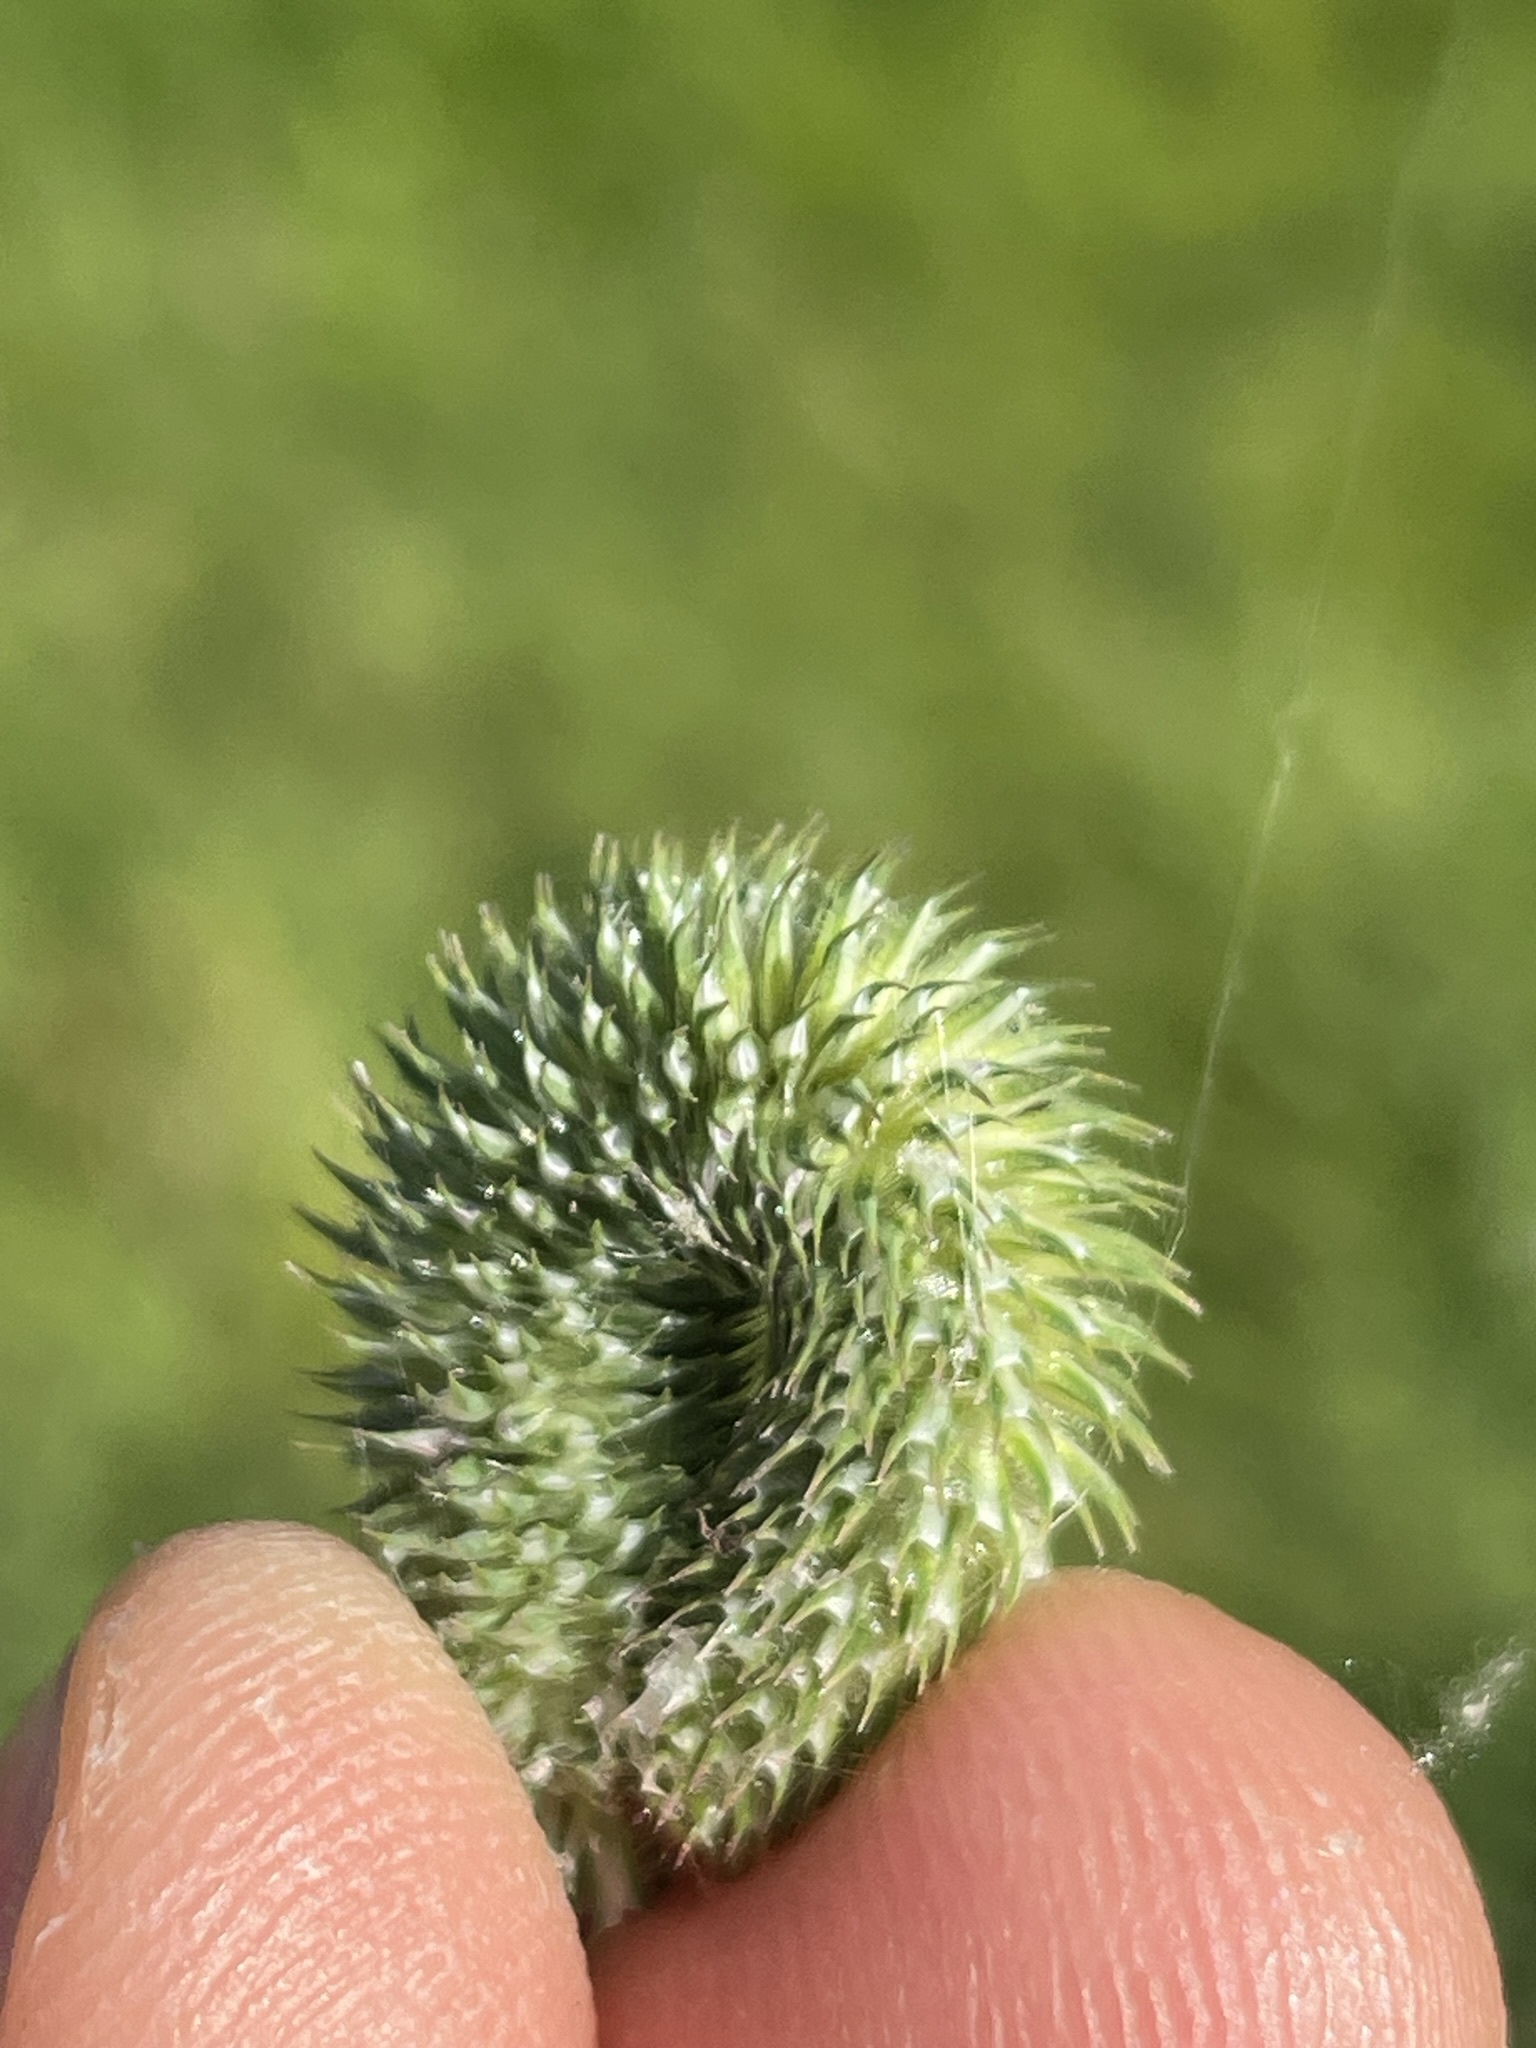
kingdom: Plantae
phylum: Tracheophyta
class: Liliopsida
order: Poales
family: Poaceae
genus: Phleum
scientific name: Phleum pratense
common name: Timothy grass
